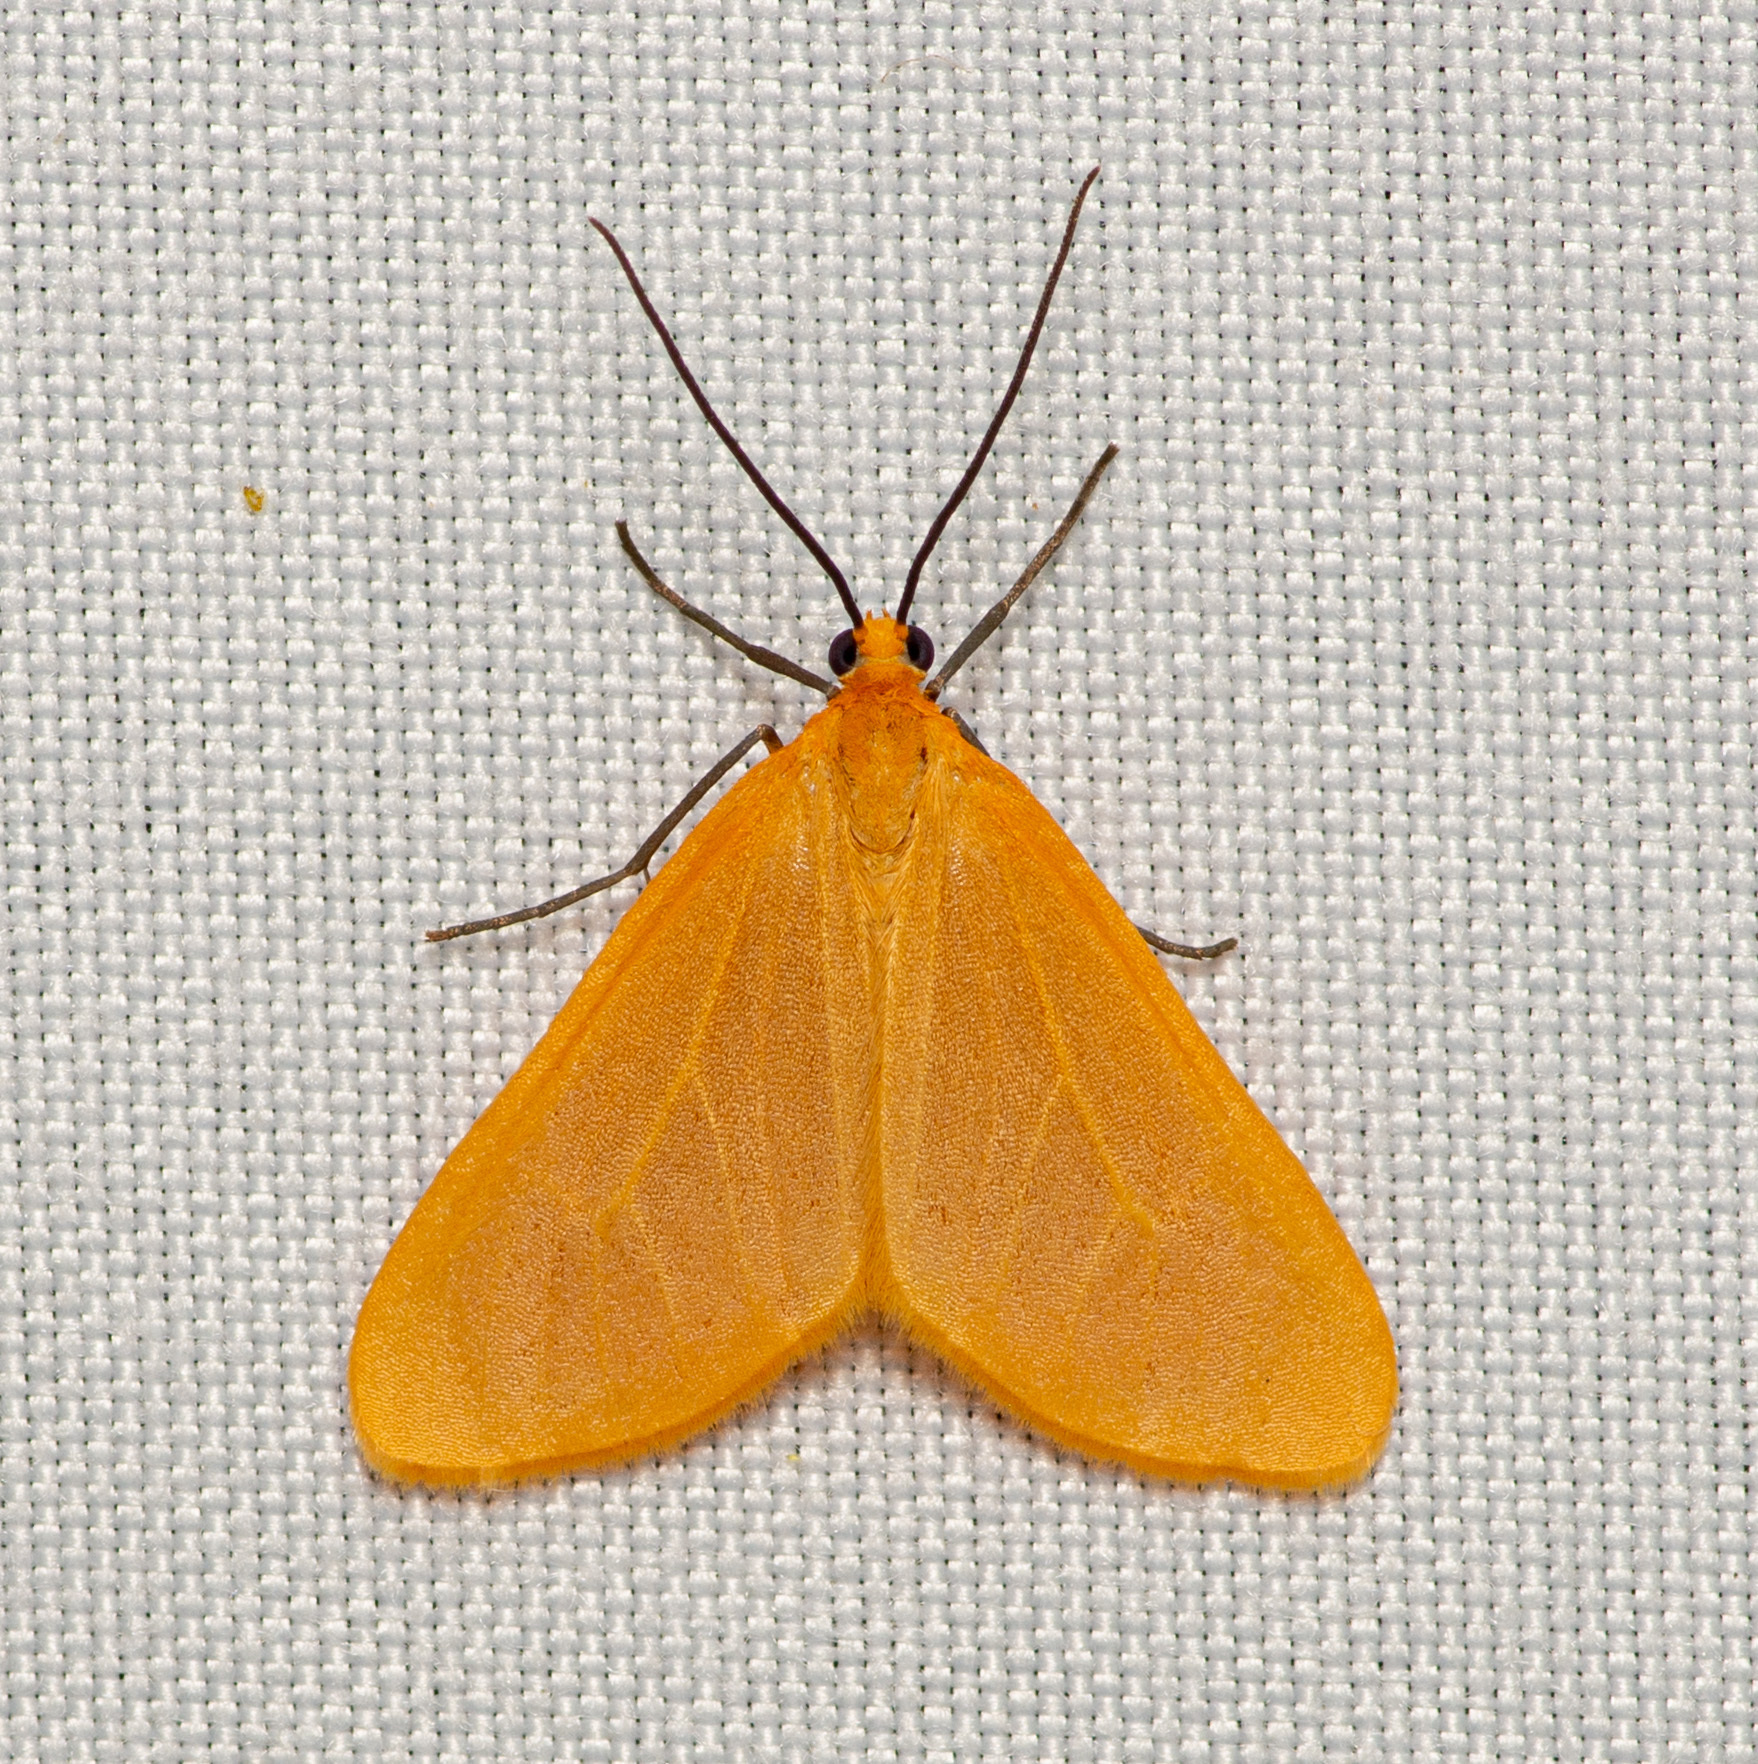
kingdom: Animalia
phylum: Arthropoda
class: Insecta
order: Lepidoptera
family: Geometridae
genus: Eubaphe
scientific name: Eubaphe unicolor
